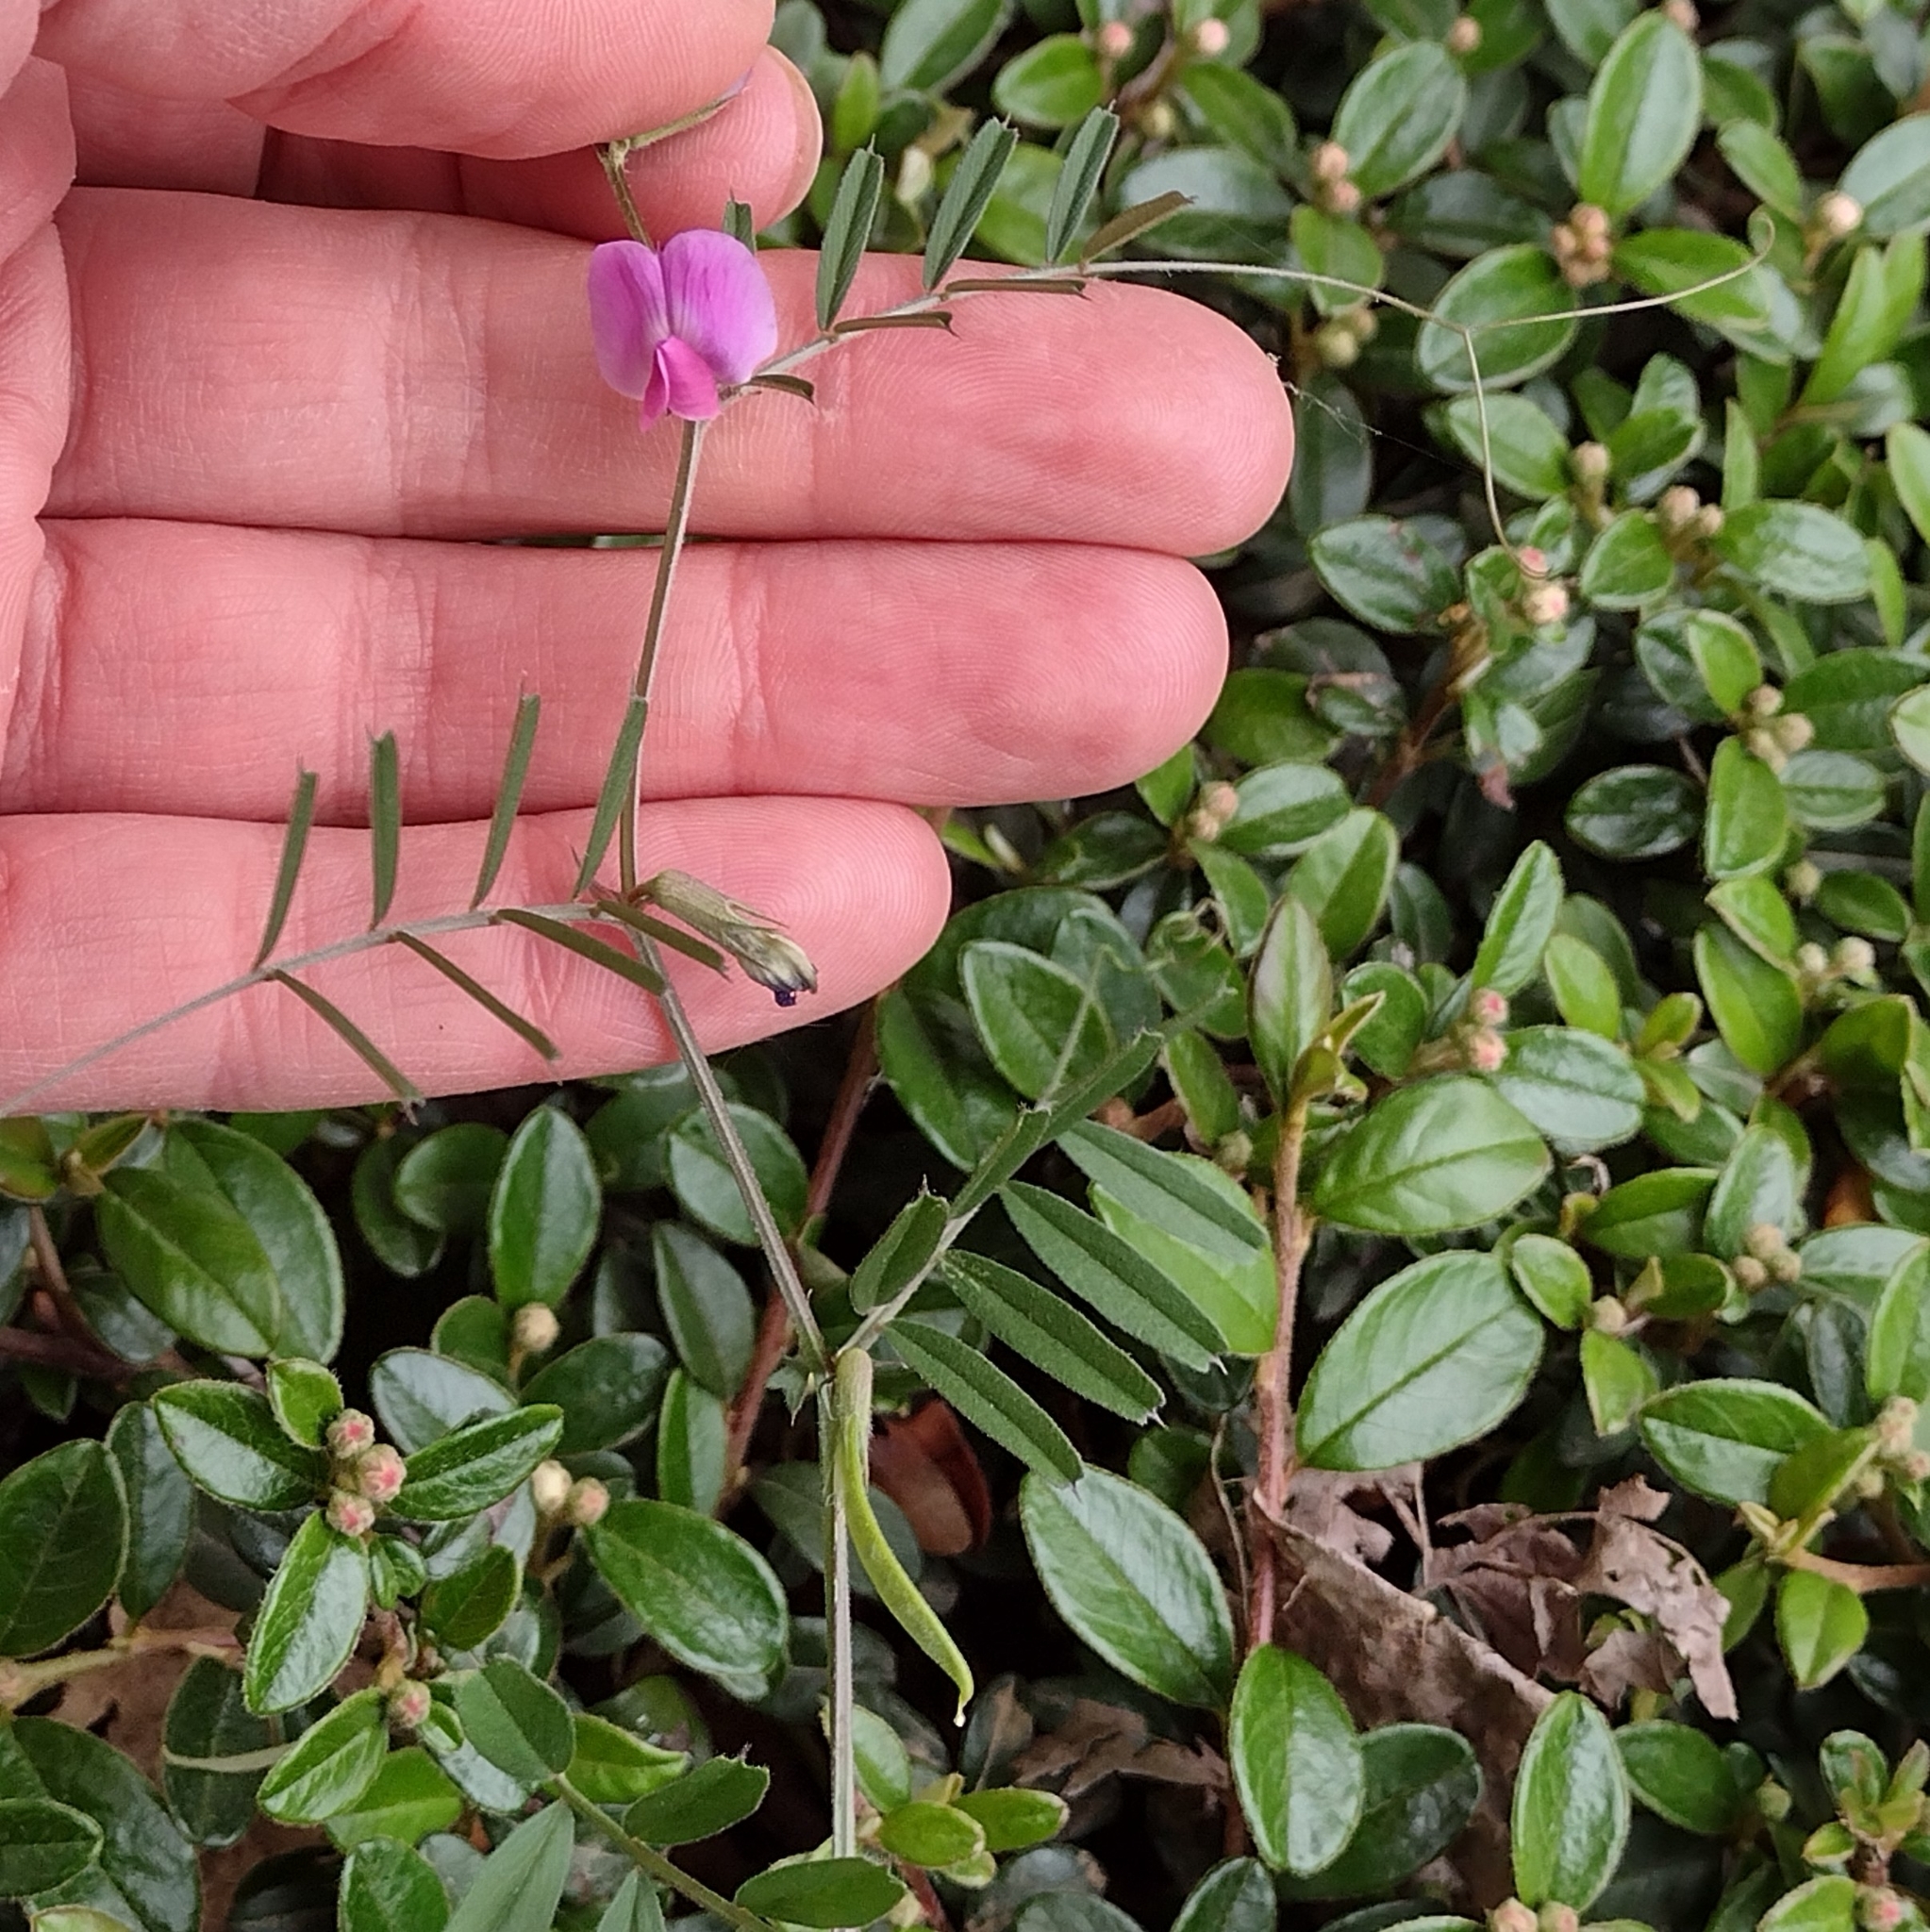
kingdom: Plantae
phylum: Tracheophyta
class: Magnoliopsida
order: Fabales
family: Fabaceae
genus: Vicia
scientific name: Vicia sativa
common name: Garden vetch
